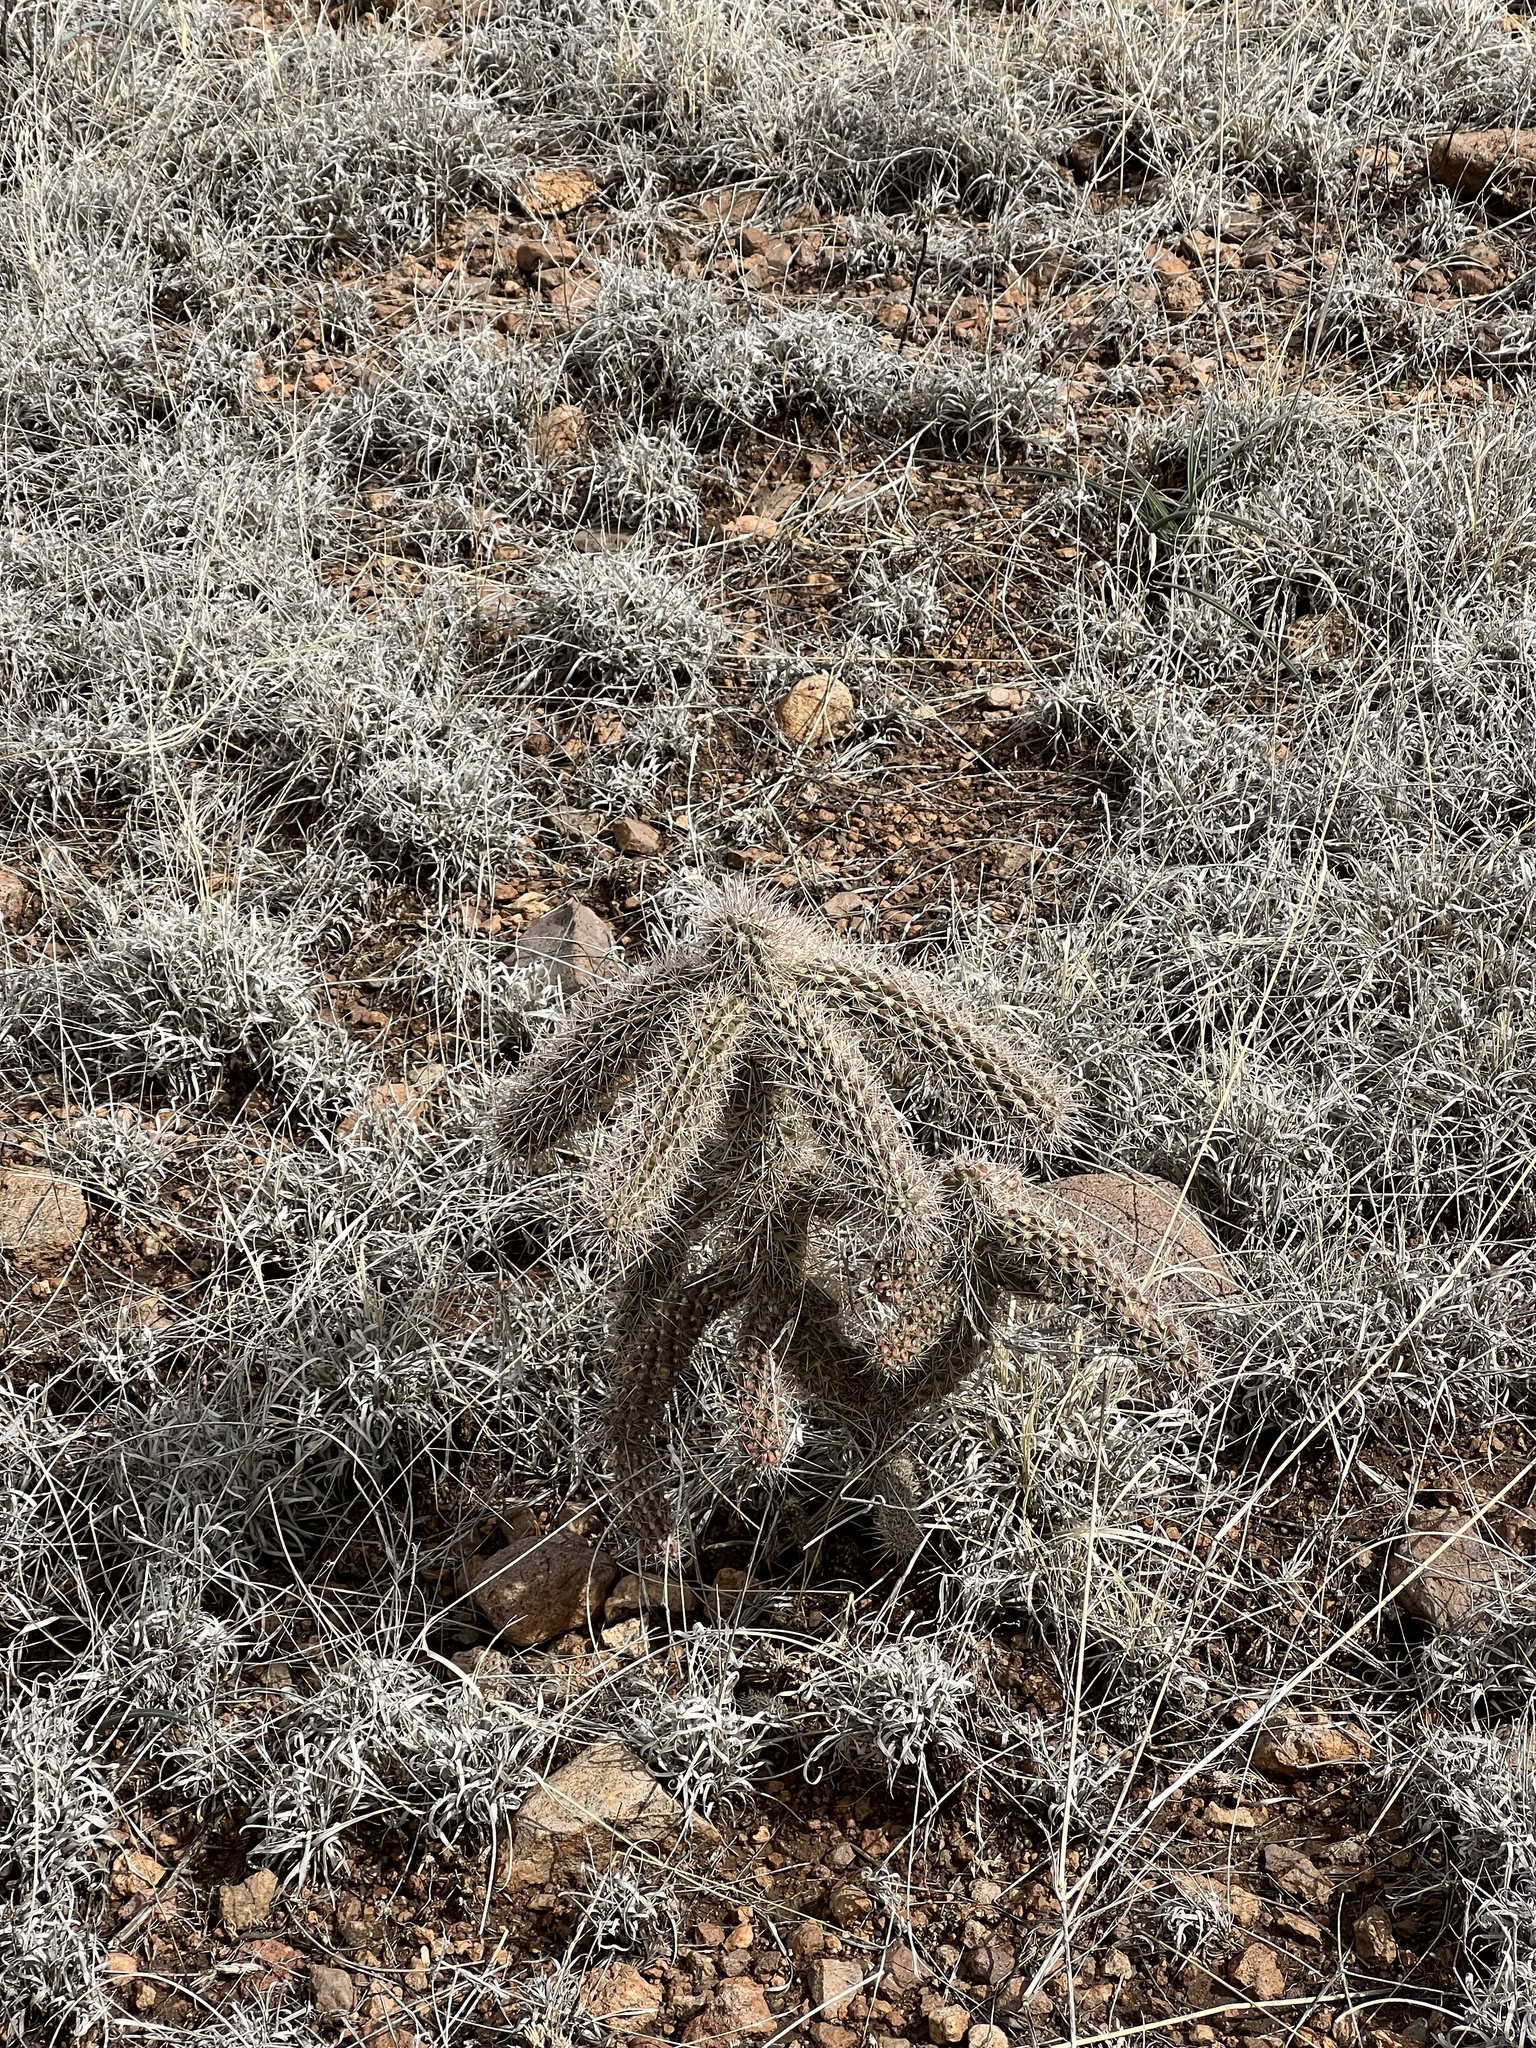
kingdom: Plantae
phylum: Tracheophyta
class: Magnoliopsida
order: Caryophyllales
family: Cactaceae
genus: Cylindropuntia
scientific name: Cylindropuntia imbricata
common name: Candelabrum cactus
